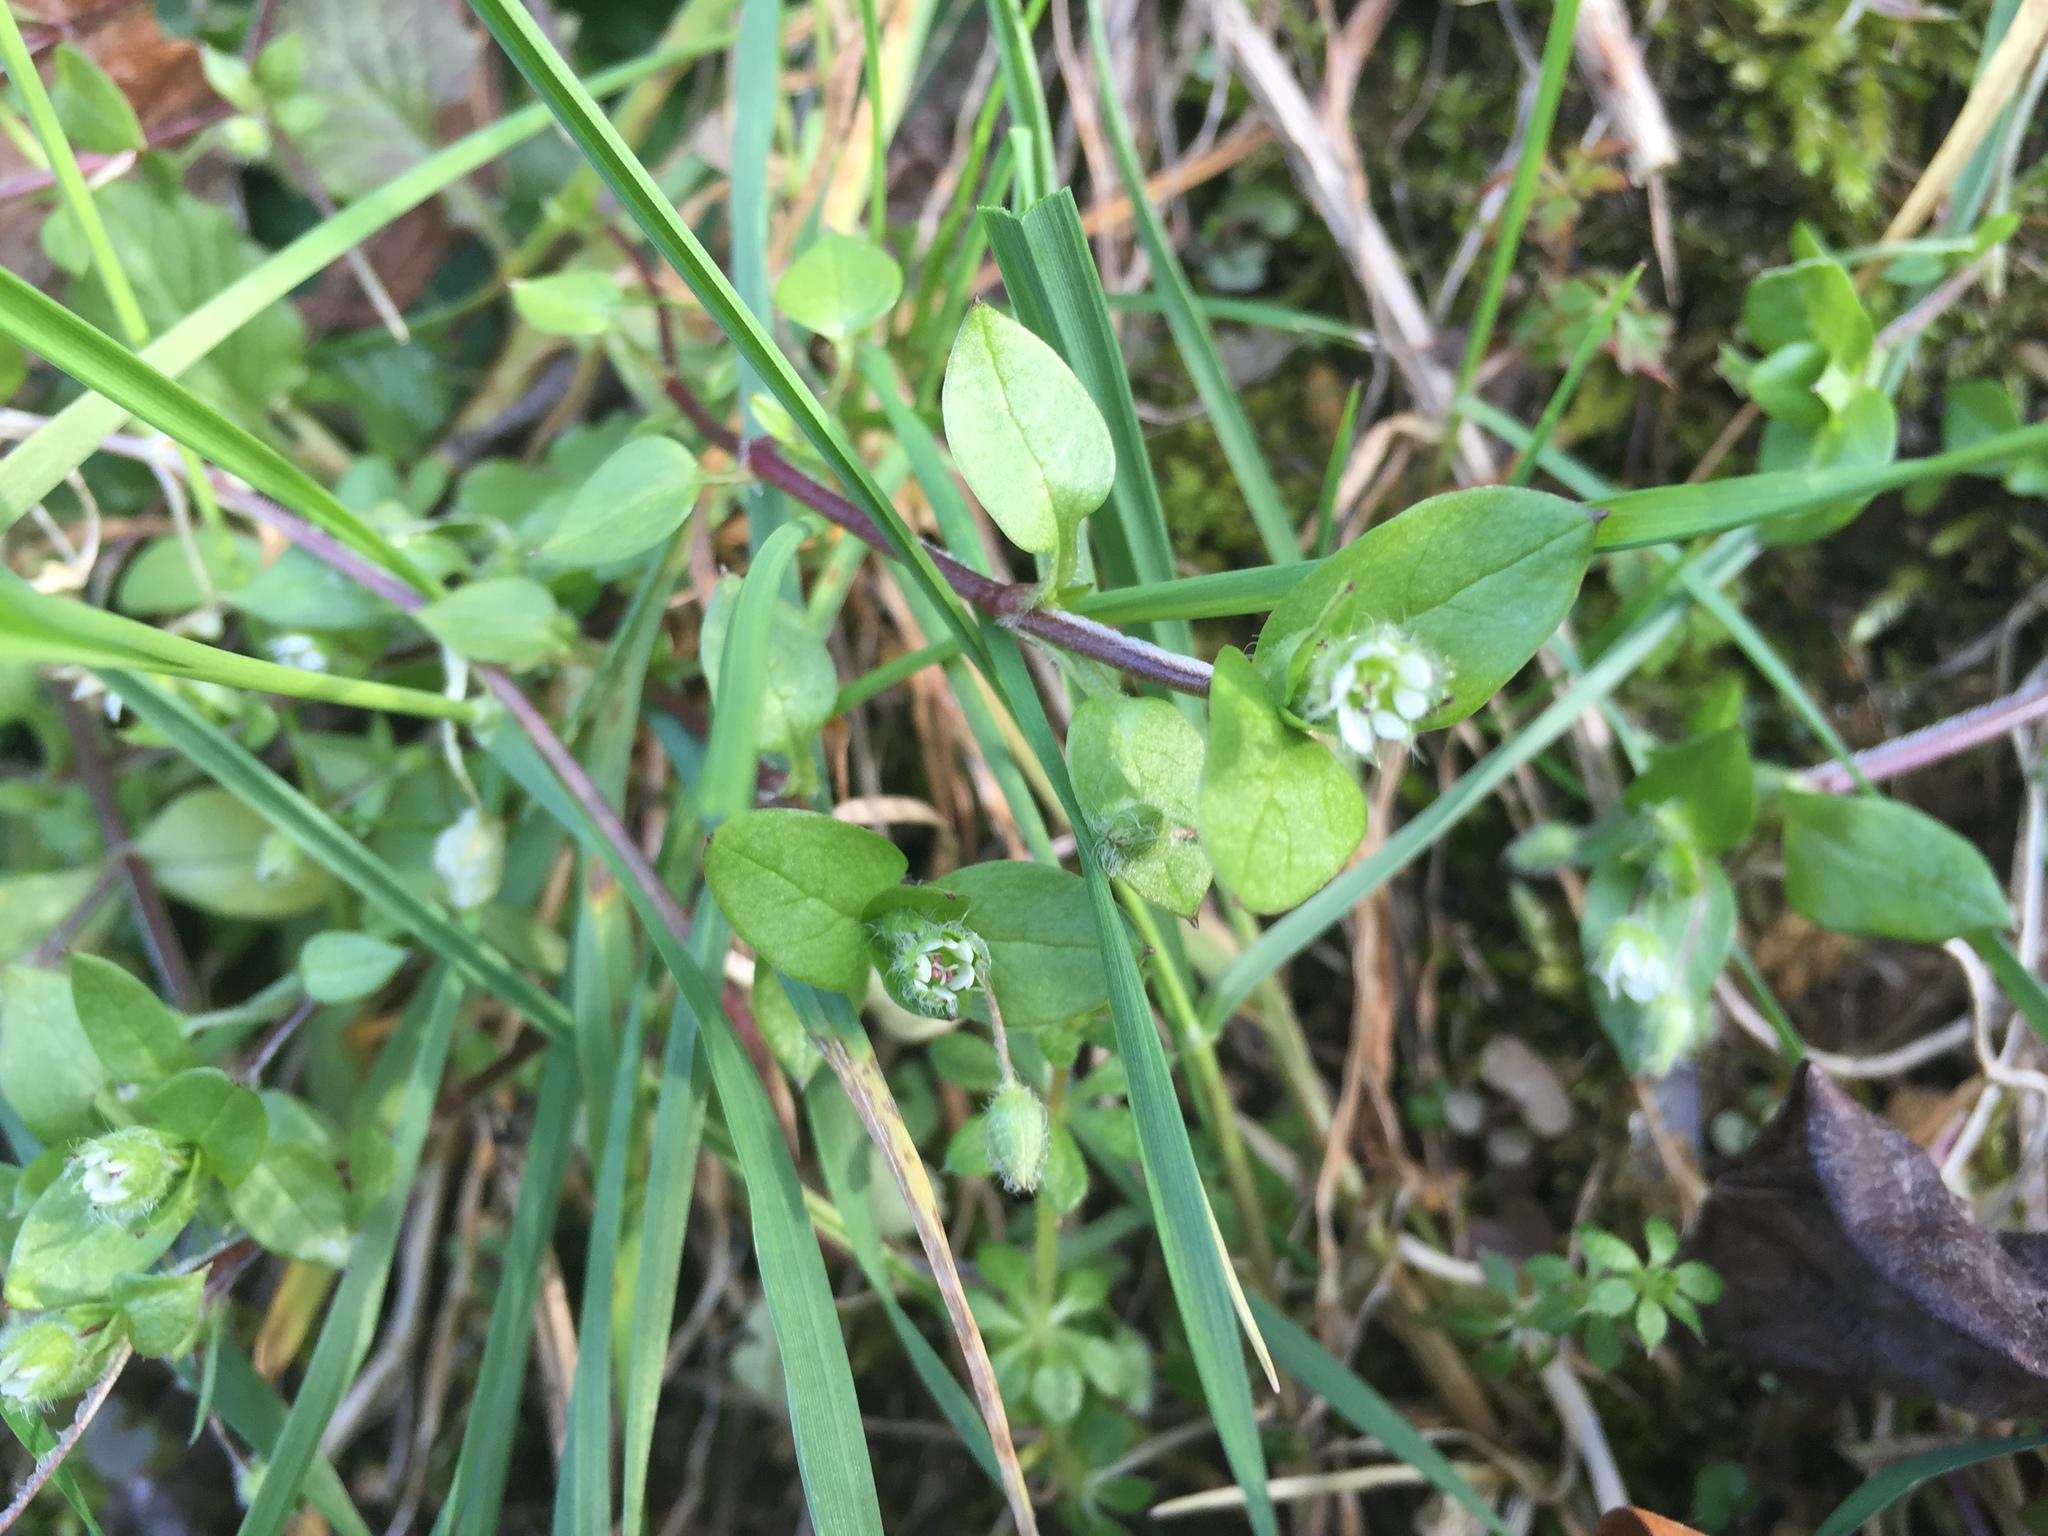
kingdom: Plantae
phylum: Tracheophyta
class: Magnoliopsida
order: Caryophyllales
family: Caryophyllaceae
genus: Stellaria
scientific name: Stellaria media
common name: Common chickweed
